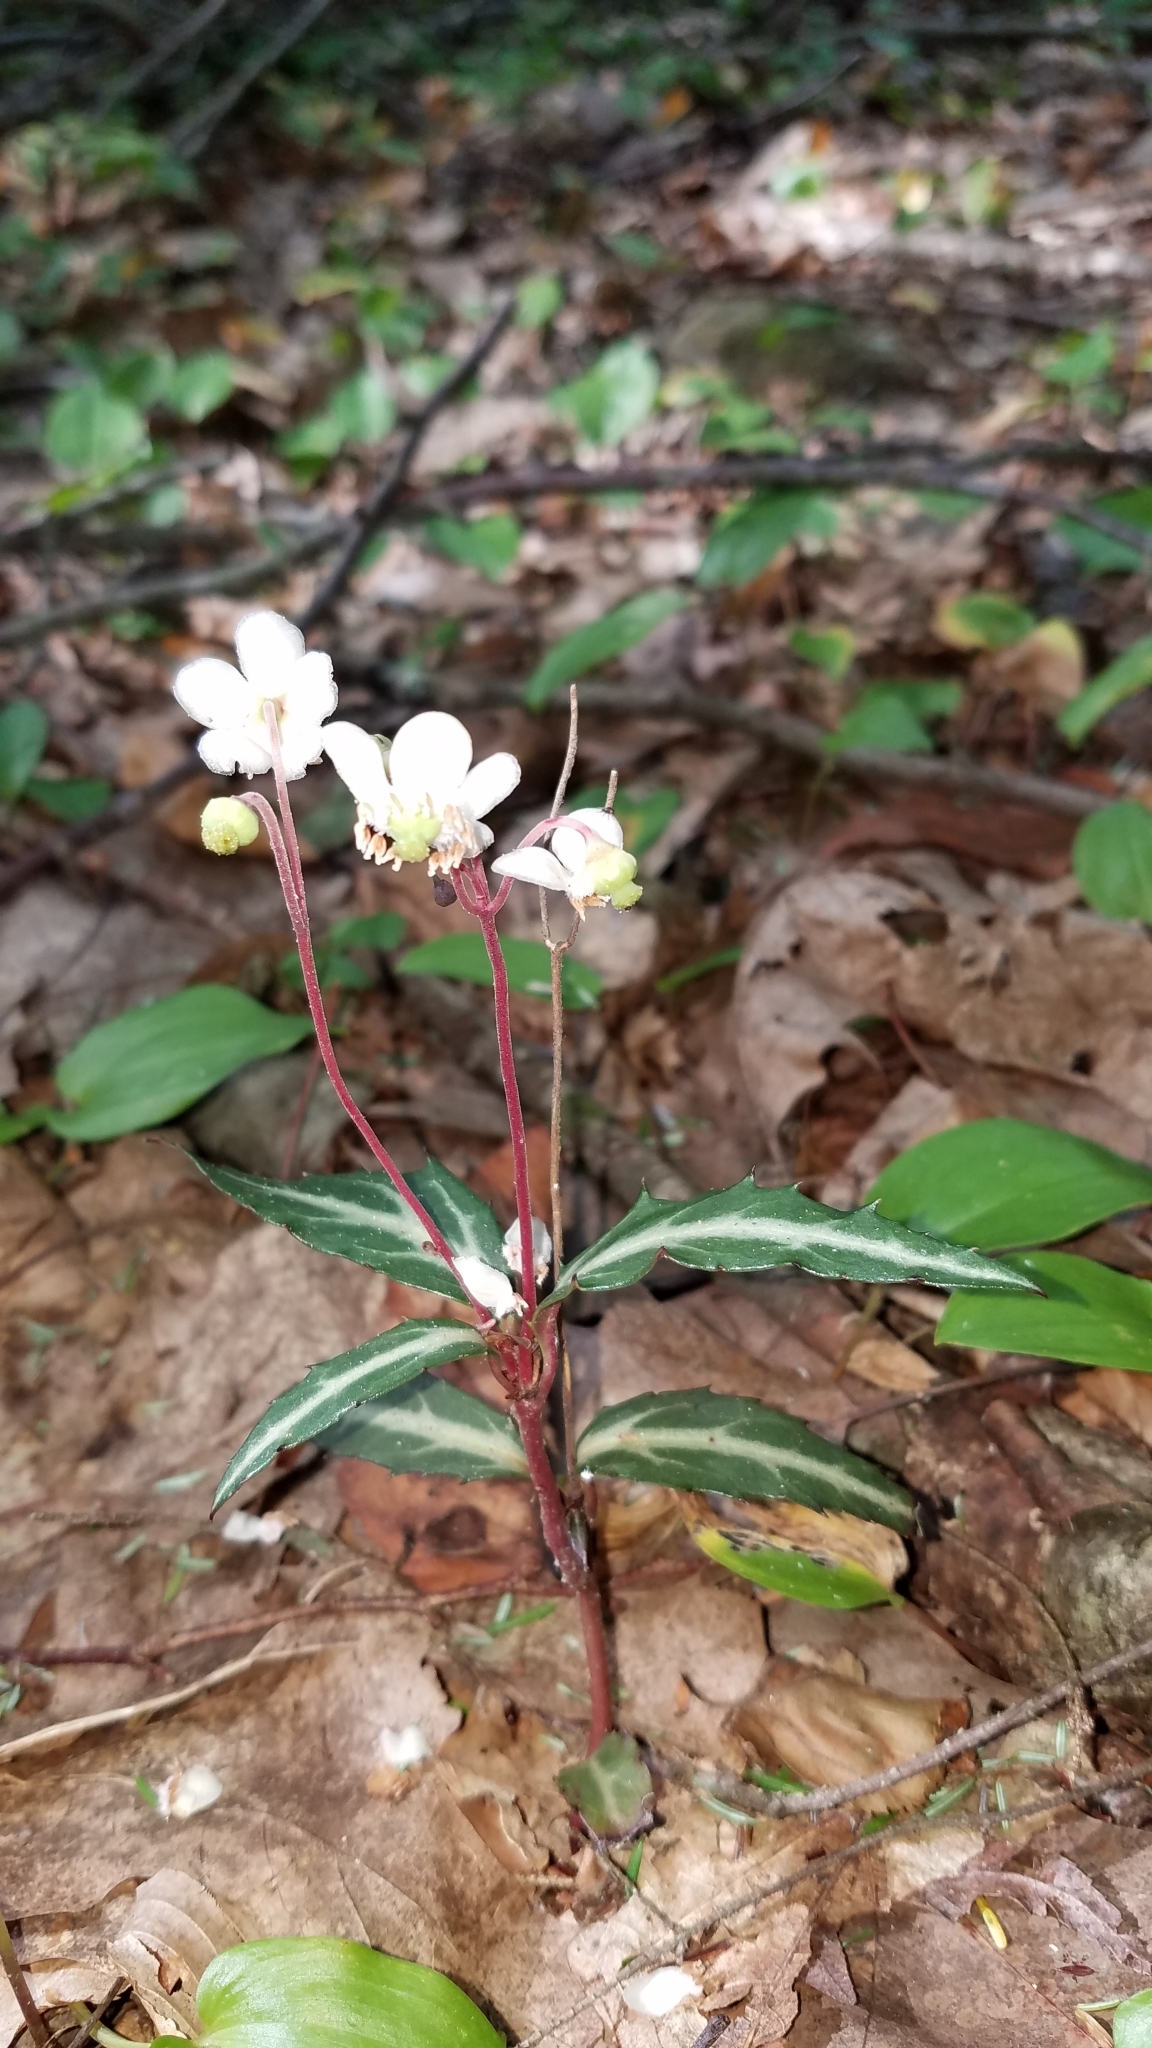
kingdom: Plantae
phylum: Tracheophyta
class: Magnoliopsida
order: Ericales
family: Ericaceae
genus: Chimaphila
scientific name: Chimaphila maculata
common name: Spotted pipsissewa
